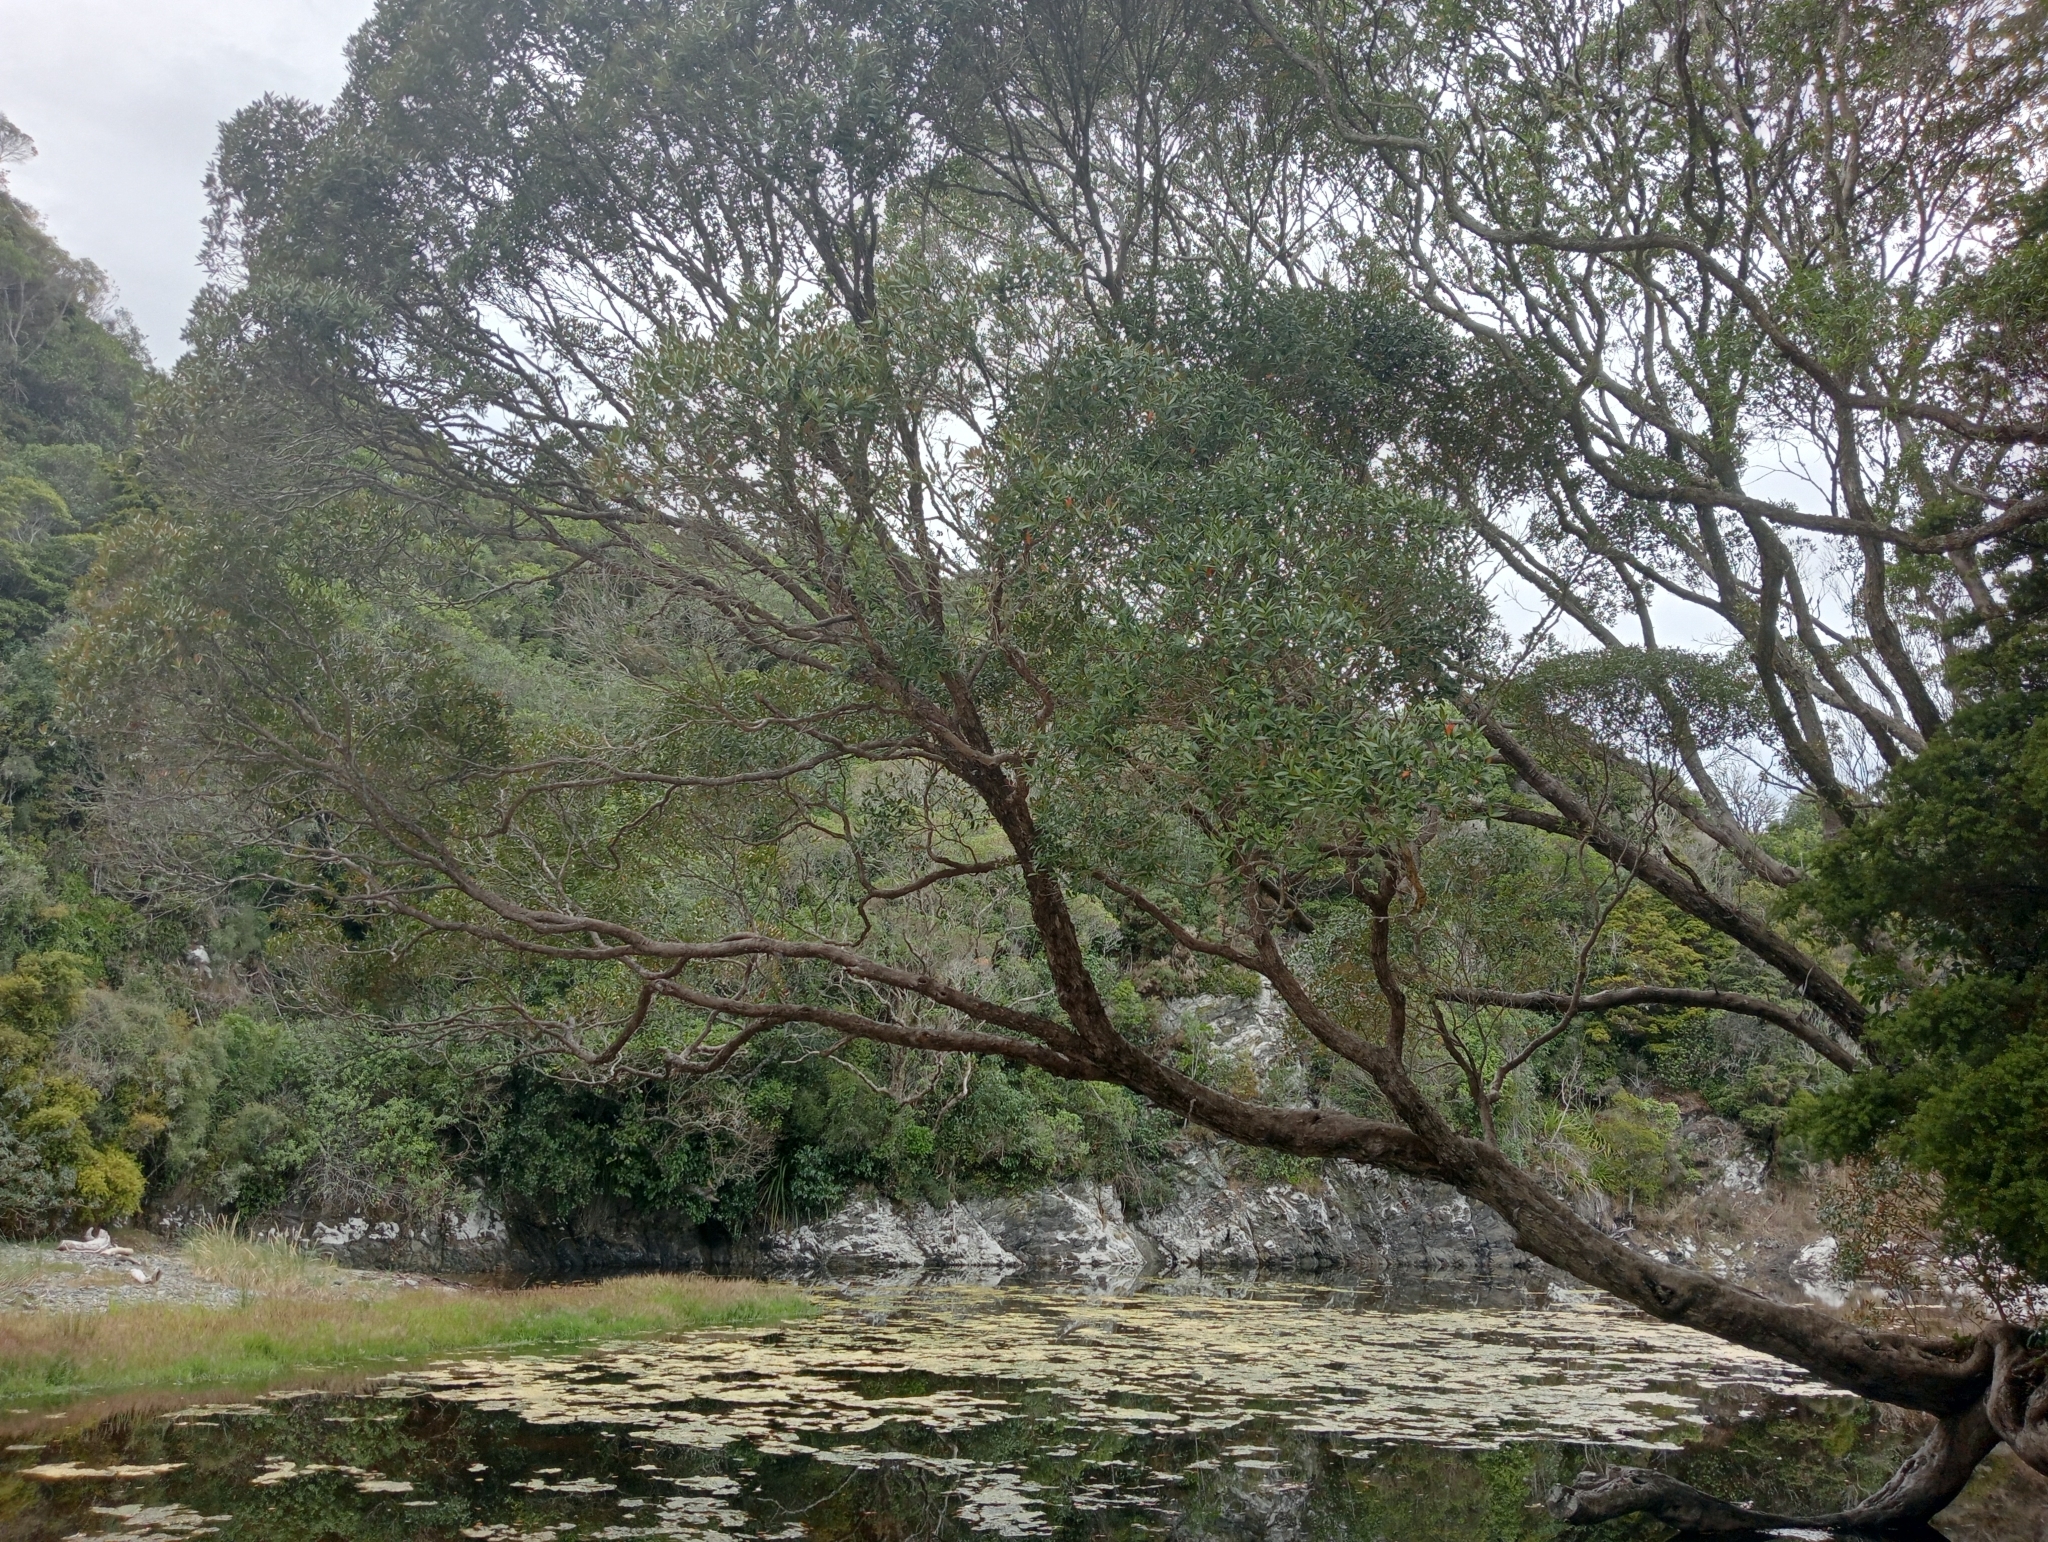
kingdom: Plantae
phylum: Tracheophyta
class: Magnoliopsida
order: Myrtales
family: Myrtaceae
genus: Metrosideros
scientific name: Metrosideros umbellata
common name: Southern rata
